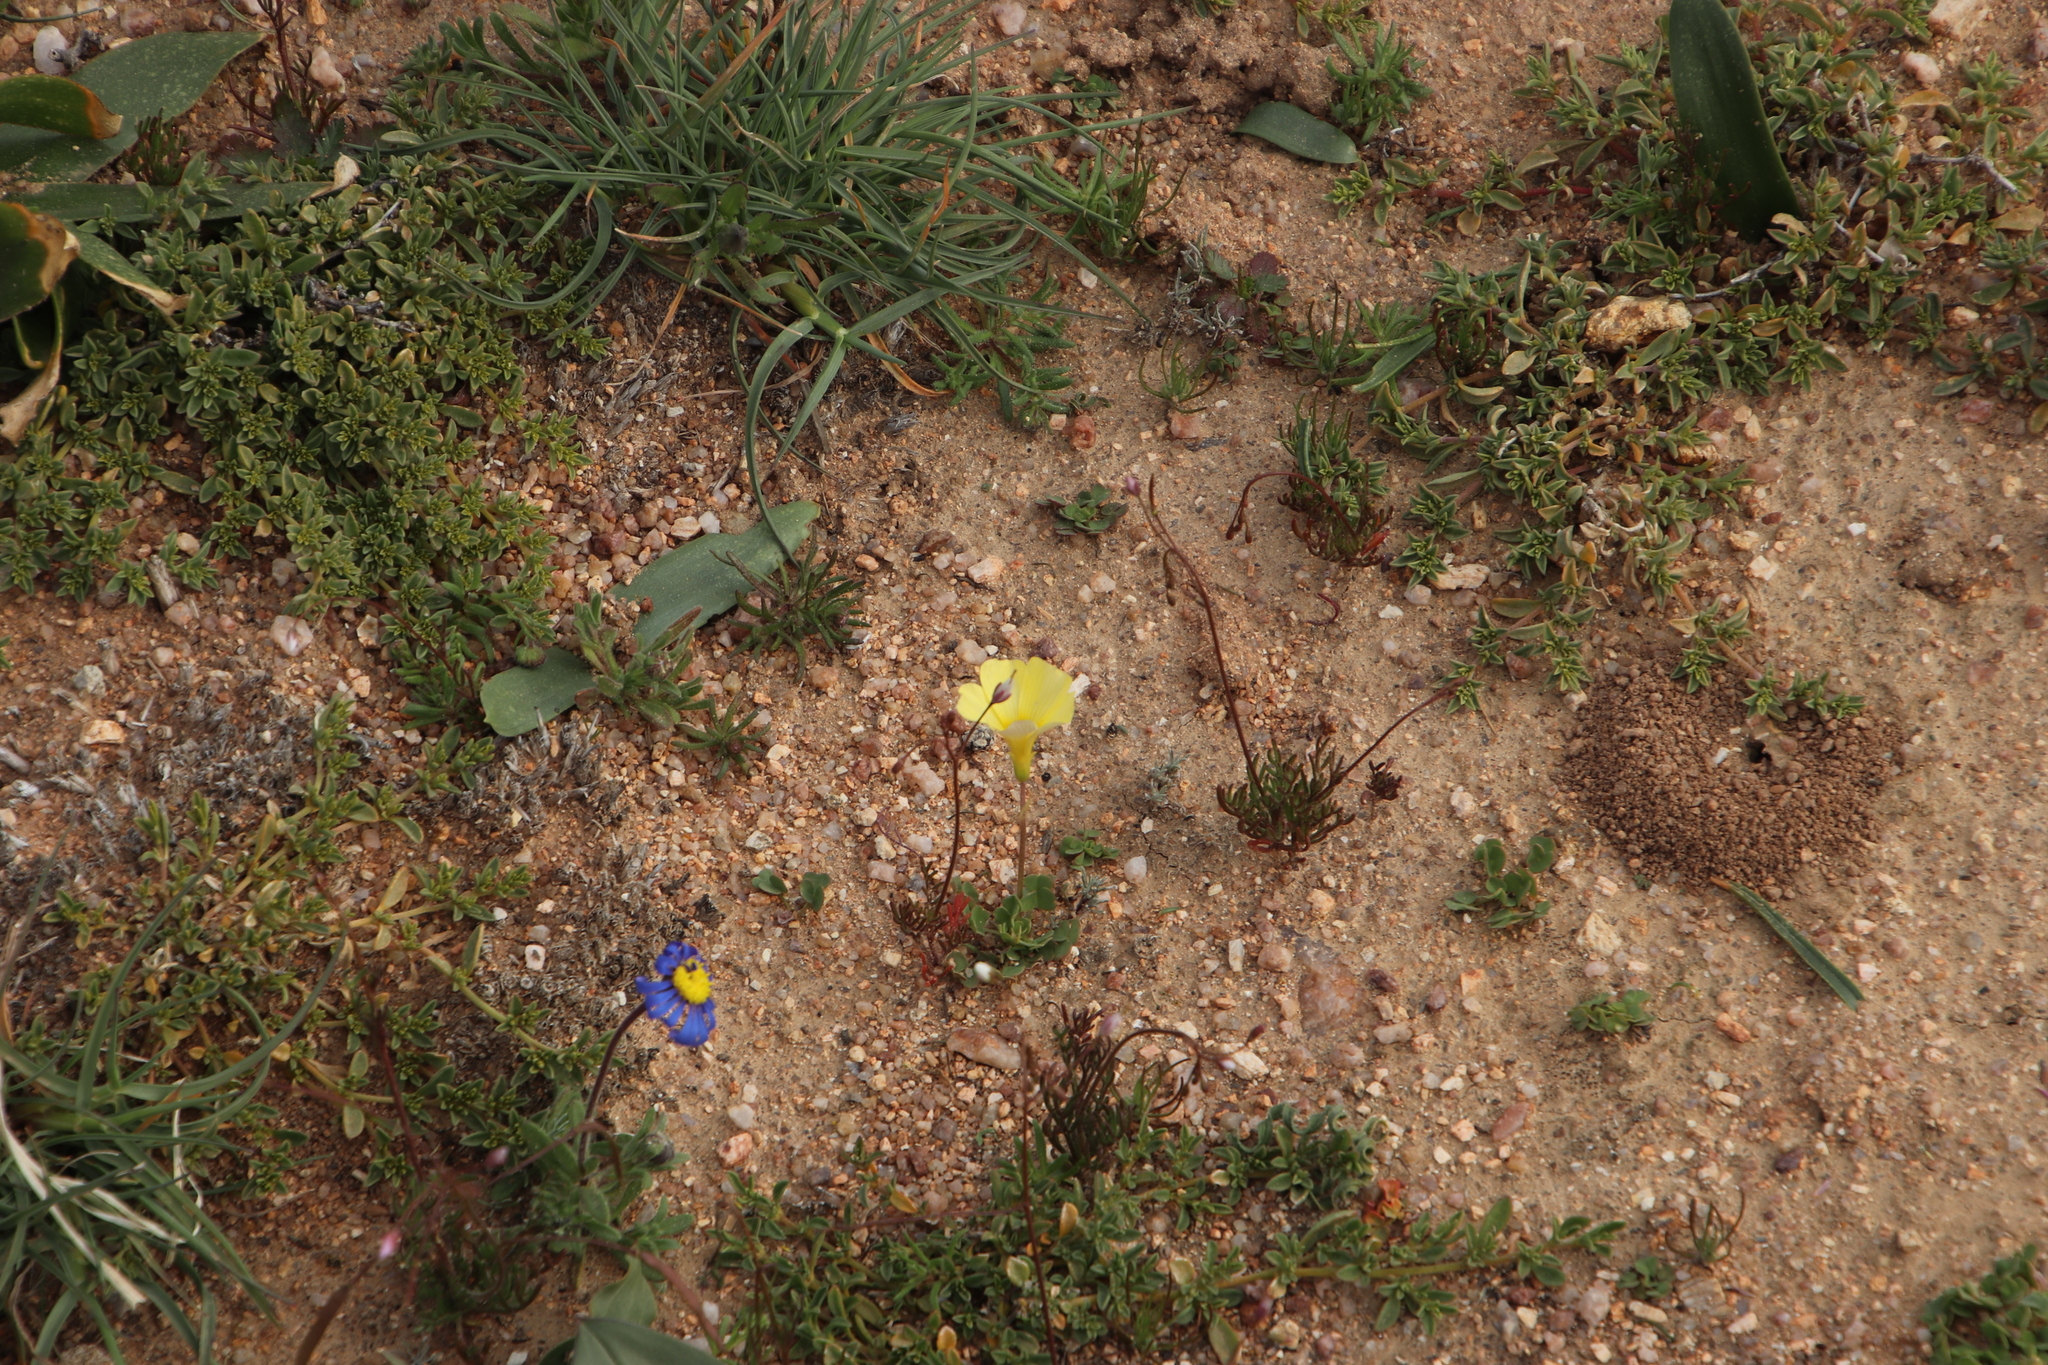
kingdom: Plantae
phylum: Tracheophyta
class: Magnoliopsida
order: Oxalidales
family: Oxalidaceae
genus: Oxalis
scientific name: Oxalis obtusa
